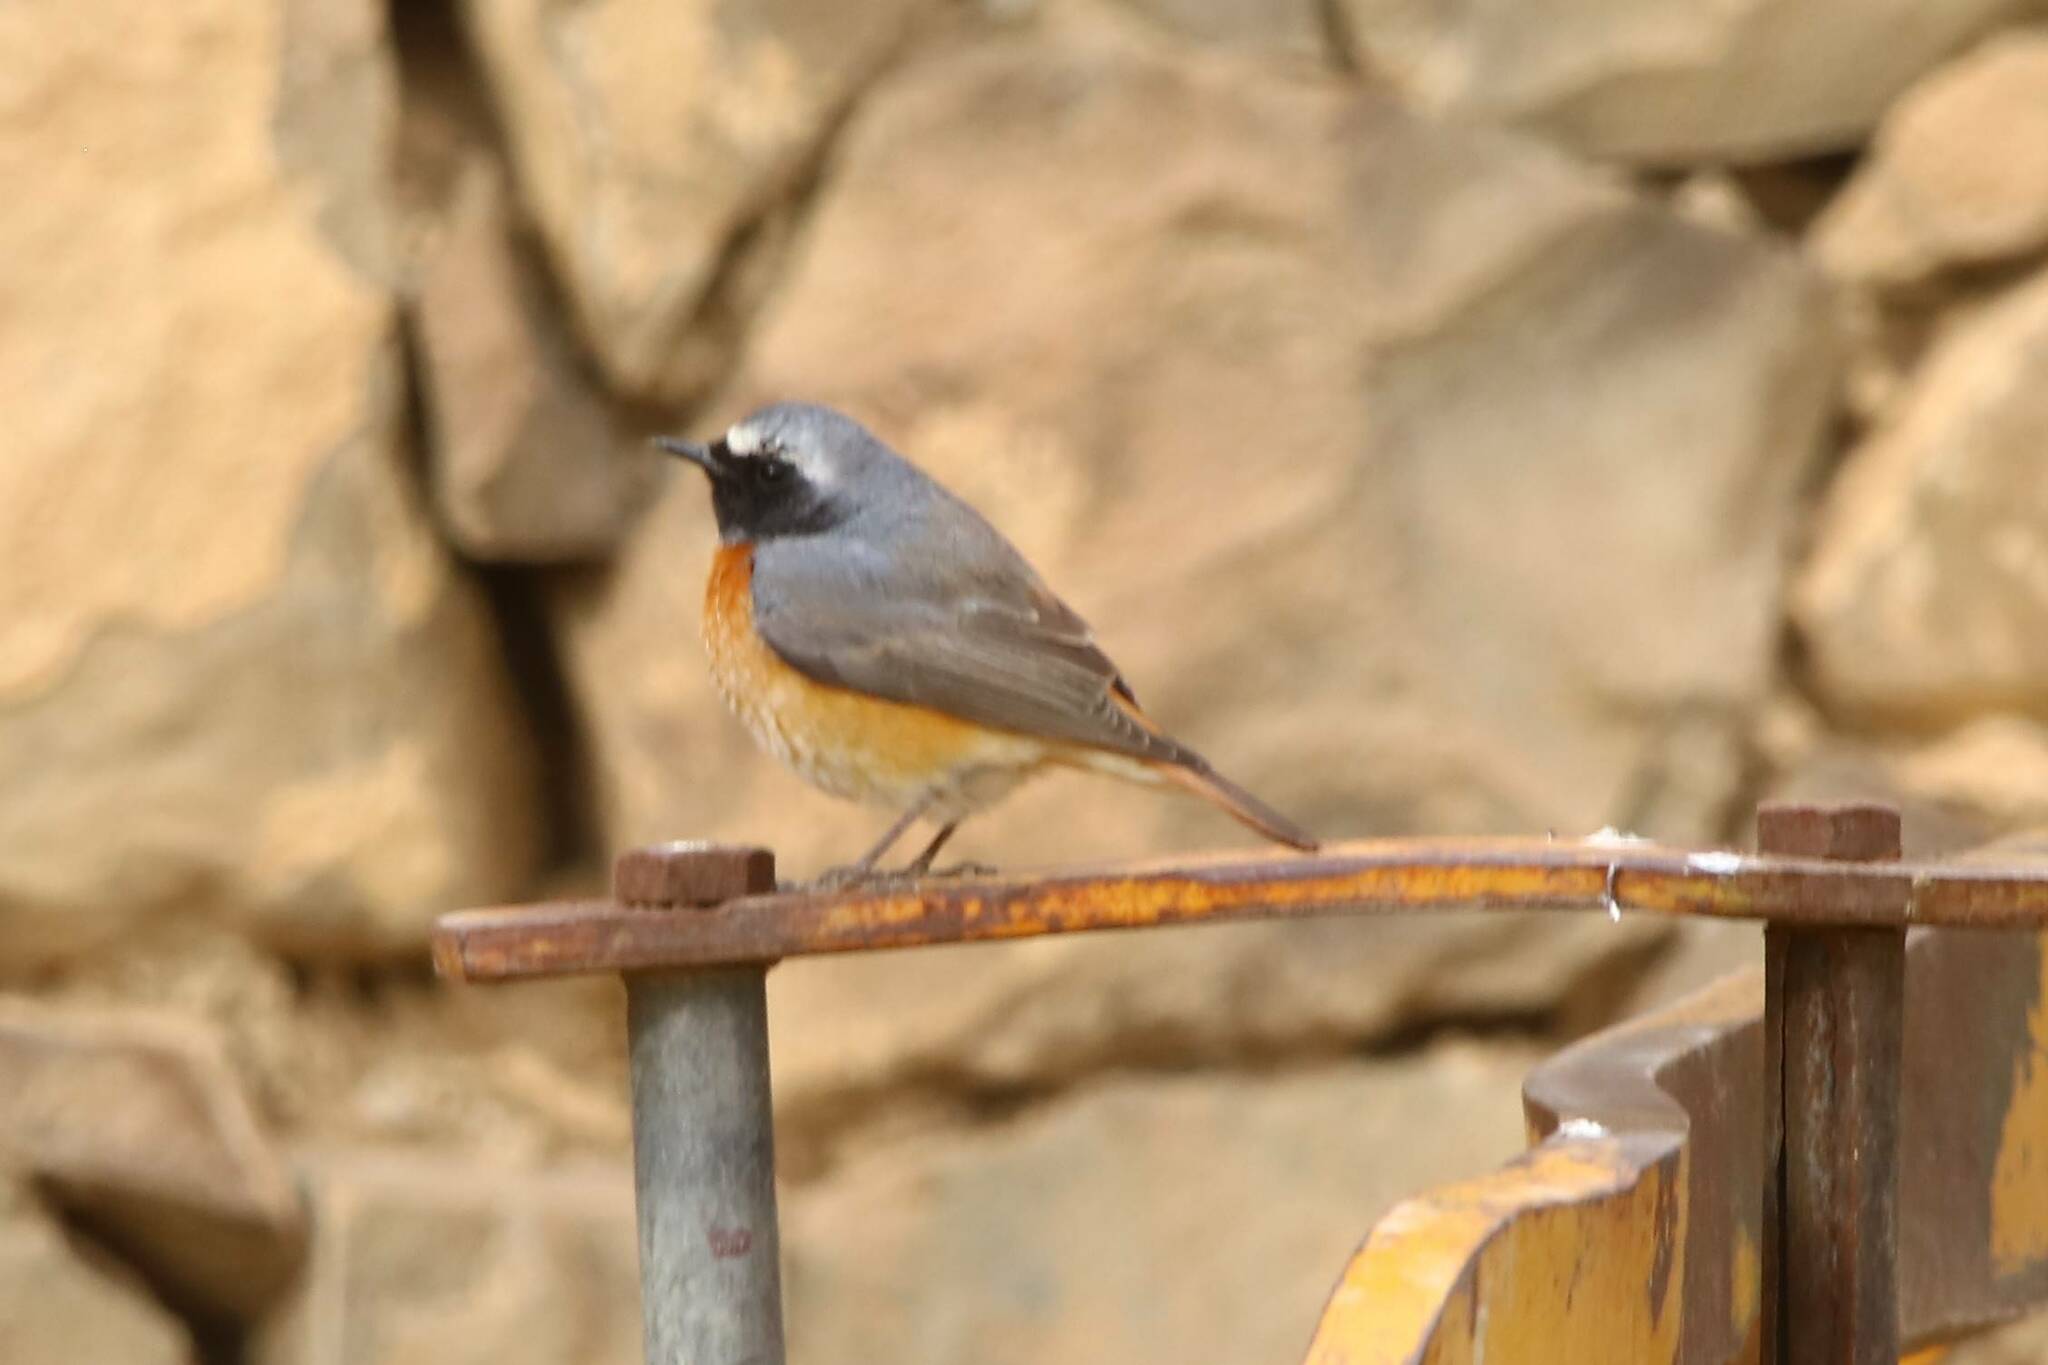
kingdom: Animalia
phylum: Chordata
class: Aves
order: Passeriformes
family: Muscicapidae
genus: Phoenicurus
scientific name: Phoenicurus phoenicurus
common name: Common redstart
